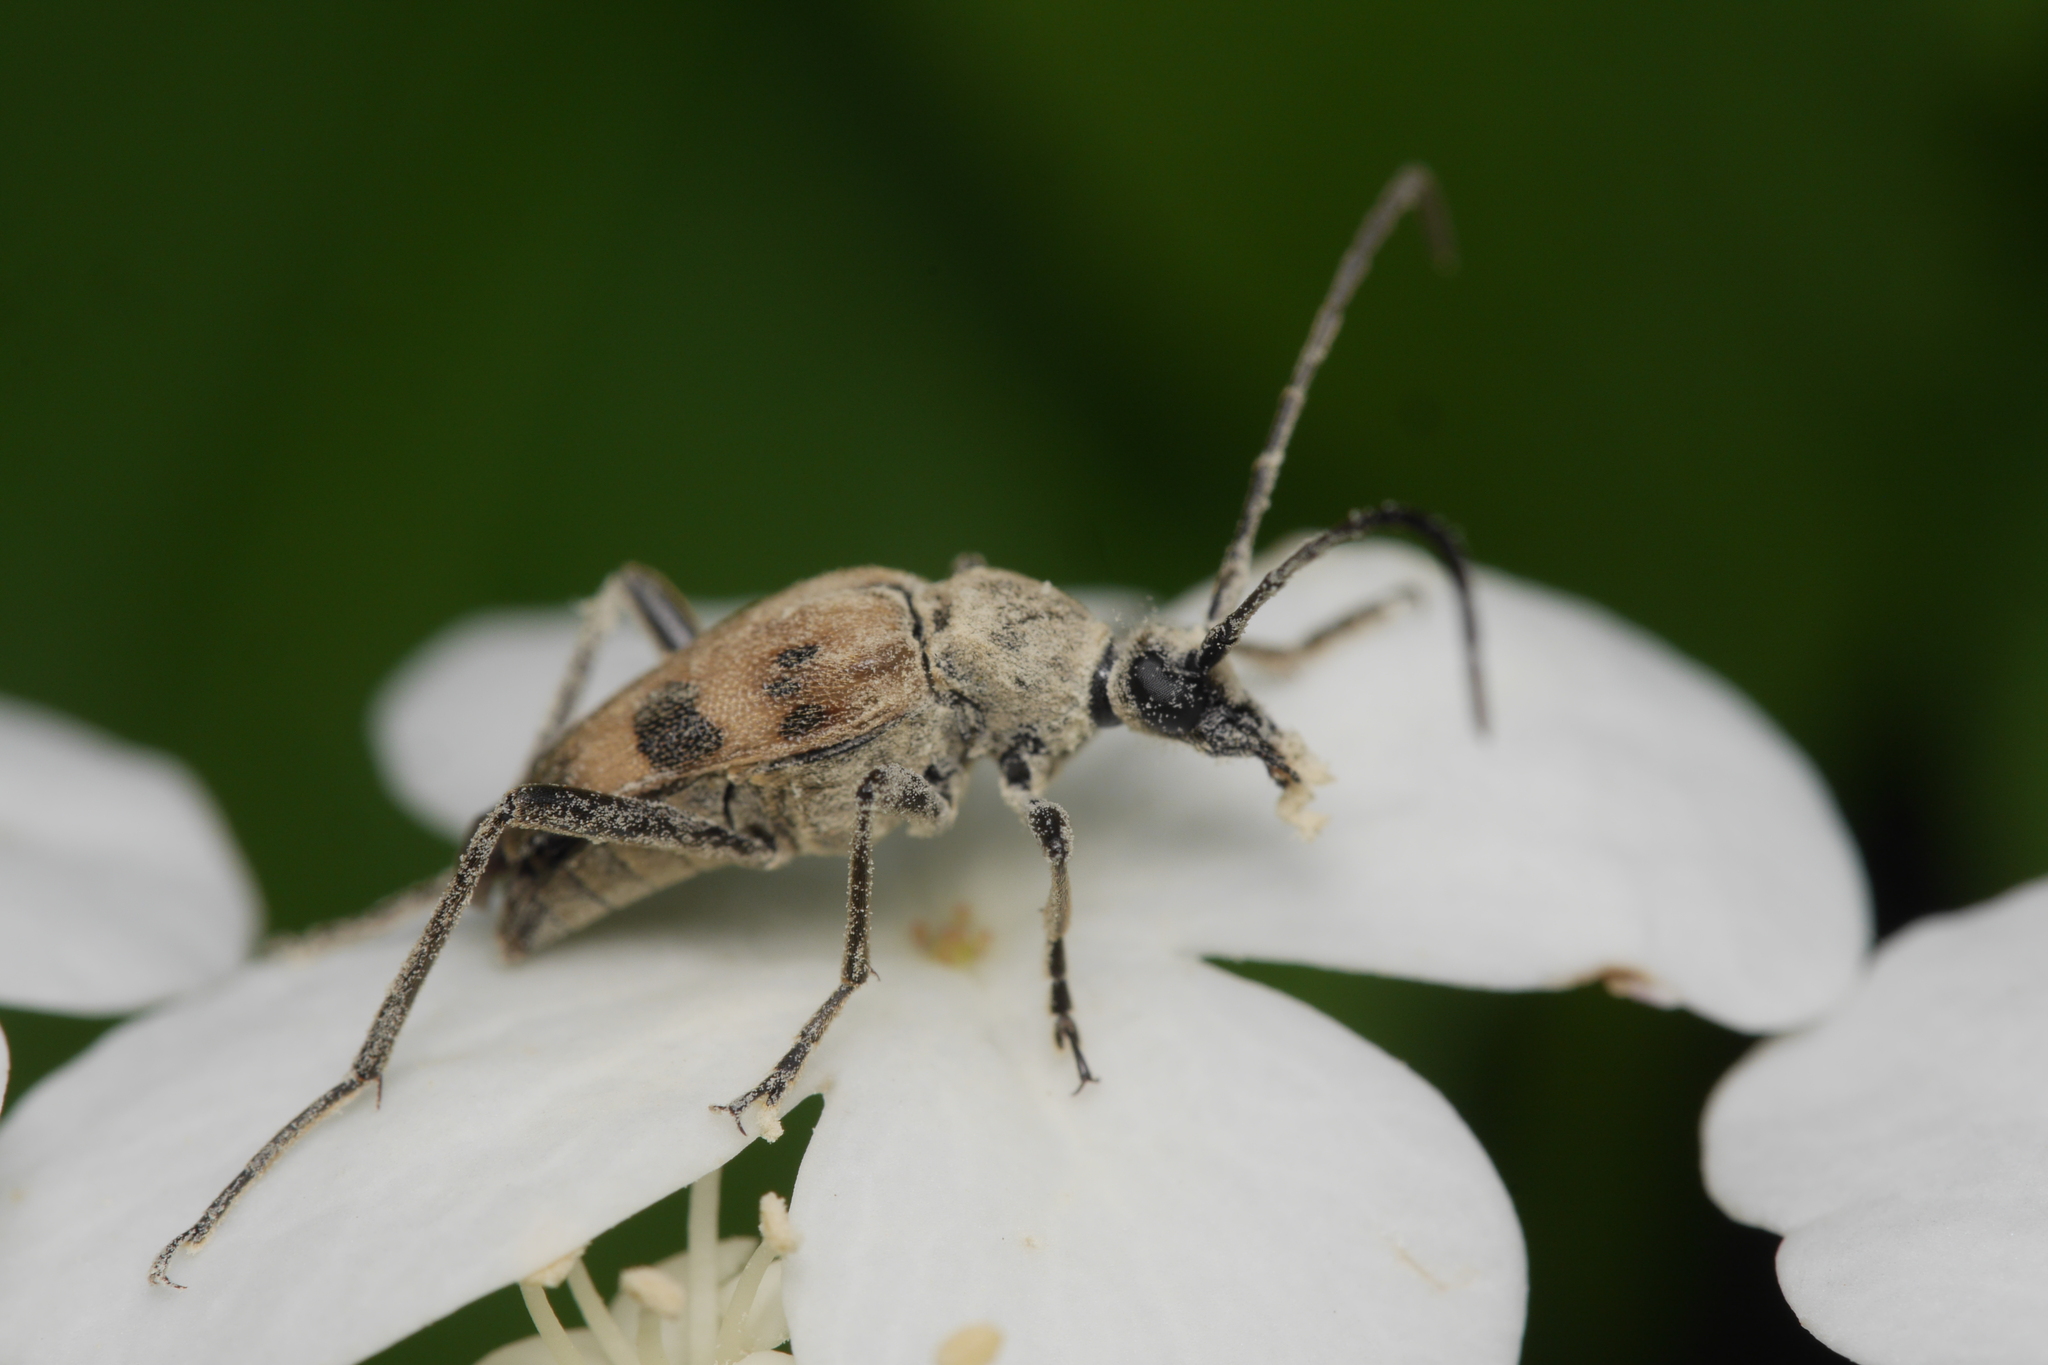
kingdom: Animalia
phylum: Arthropoda
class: Insecta
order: Coleoptera
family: Cerambycidae
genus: Pachytodes
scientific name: Pachytodes cerambyciformis
